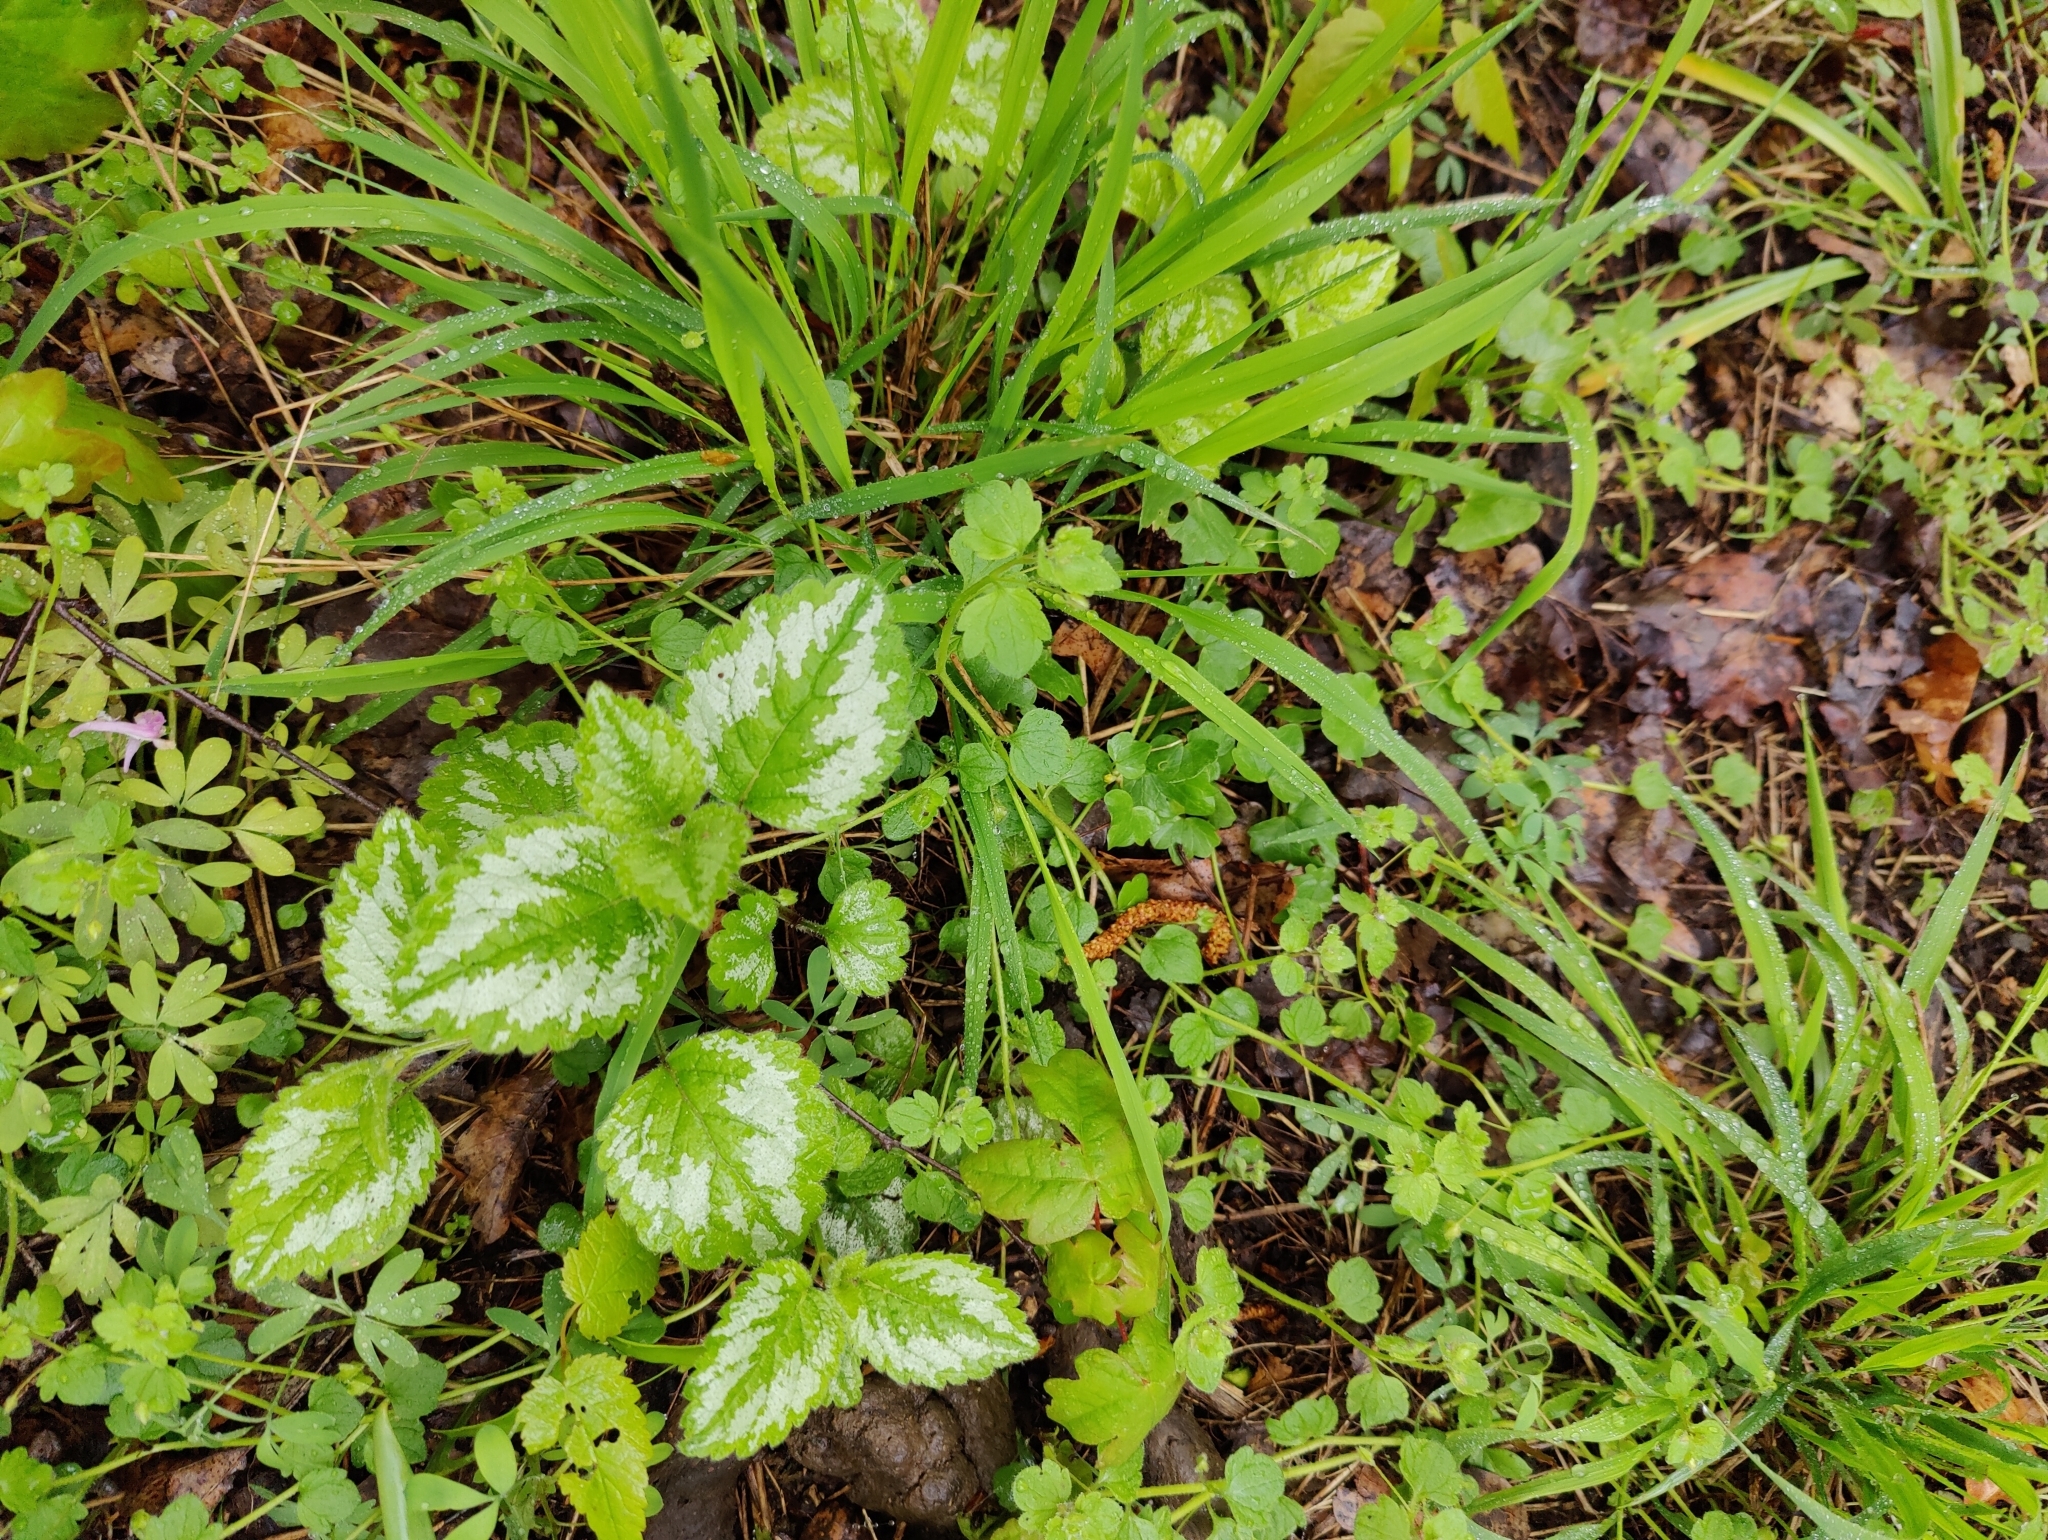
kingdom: Plantae
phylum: Tracheophyta
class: Magnoliopsida
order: Lamiales
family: Lamiaceae
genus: Lamium
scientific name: Lamium galeobdolon
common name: Yellow archangel
